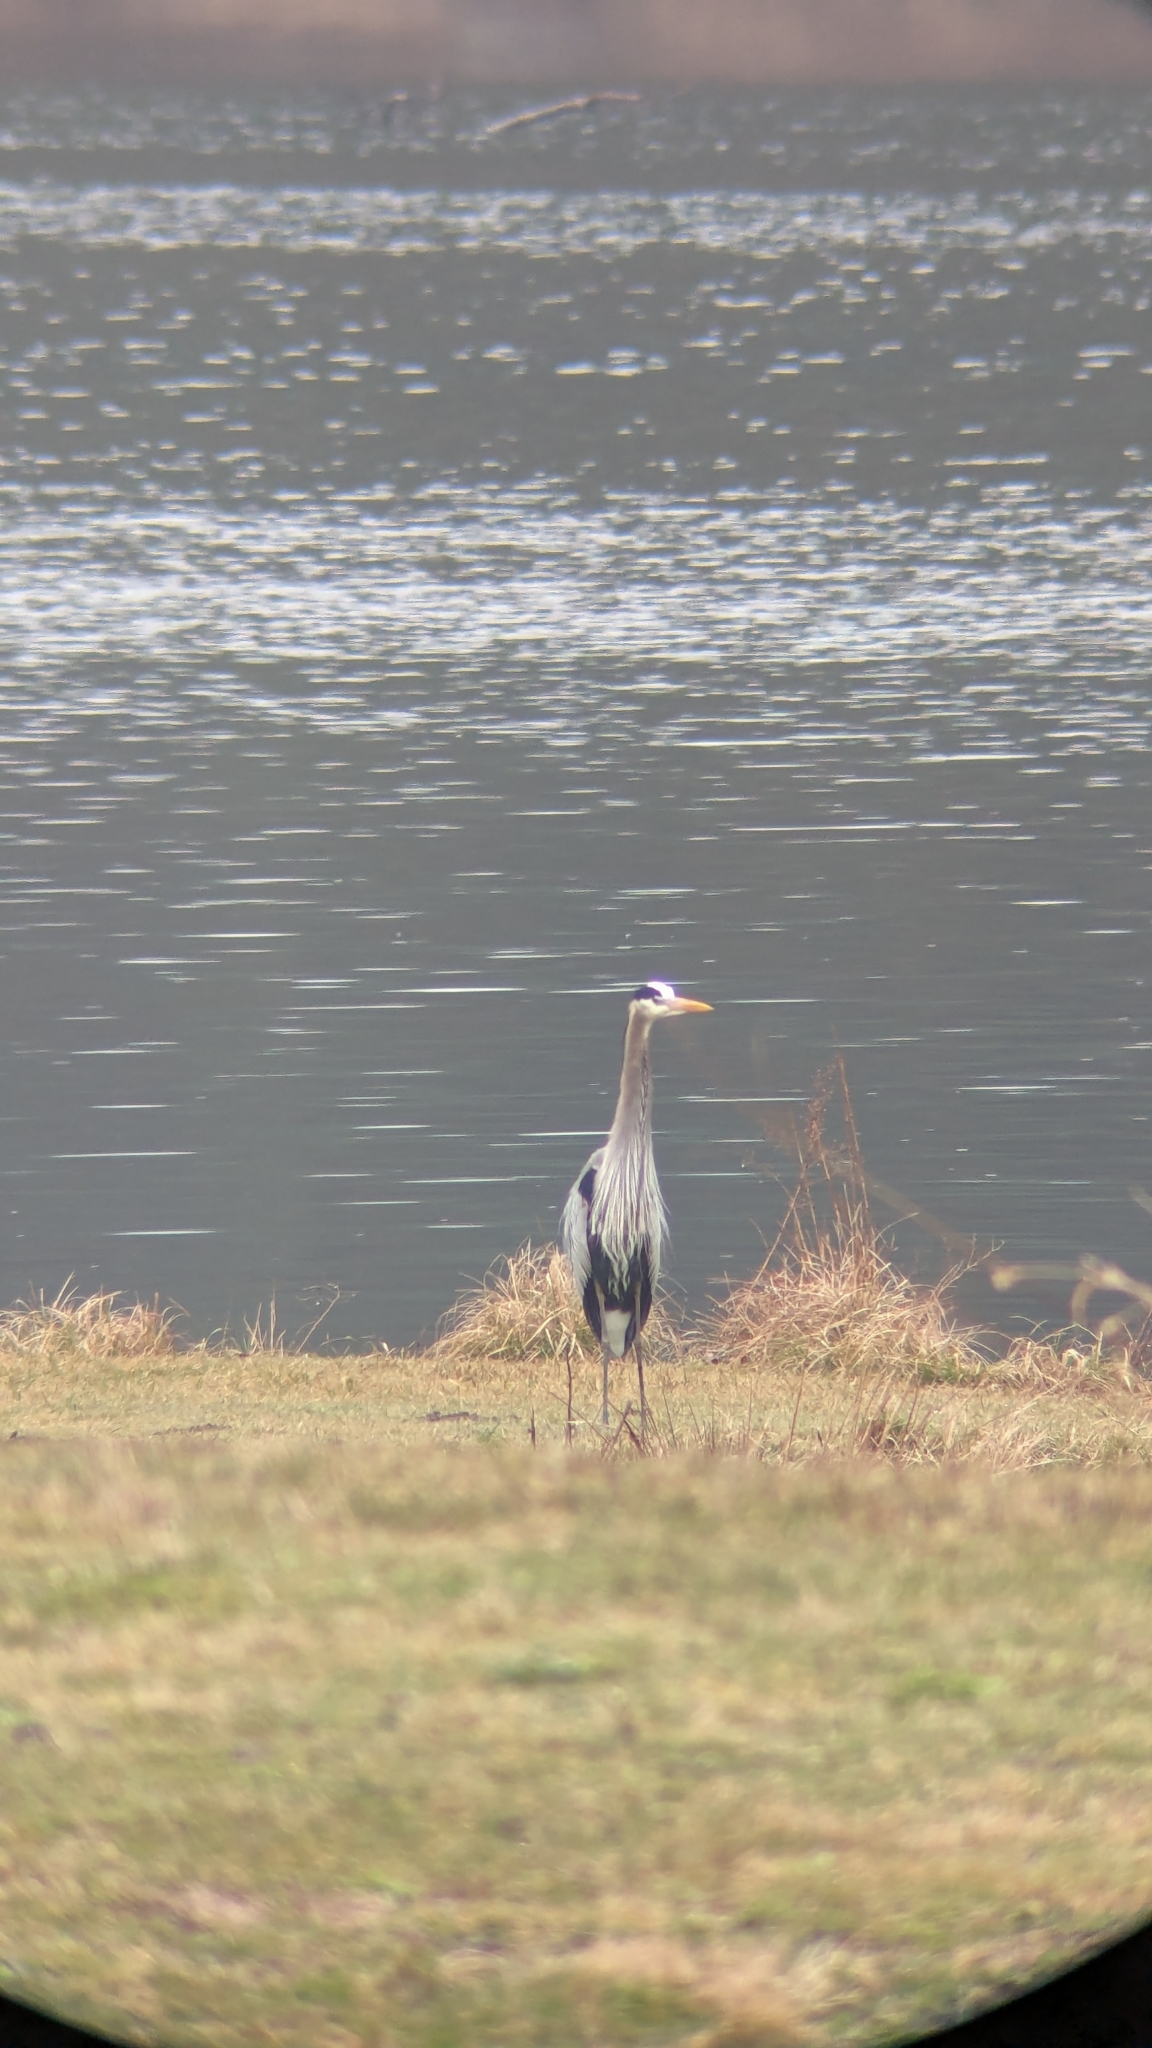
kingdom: Animalia
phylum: Chordata
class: Aves
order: Pelecaniformes
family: Ardeidae
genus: Ardea
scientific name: Ardea herodias
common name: Great blue heron
